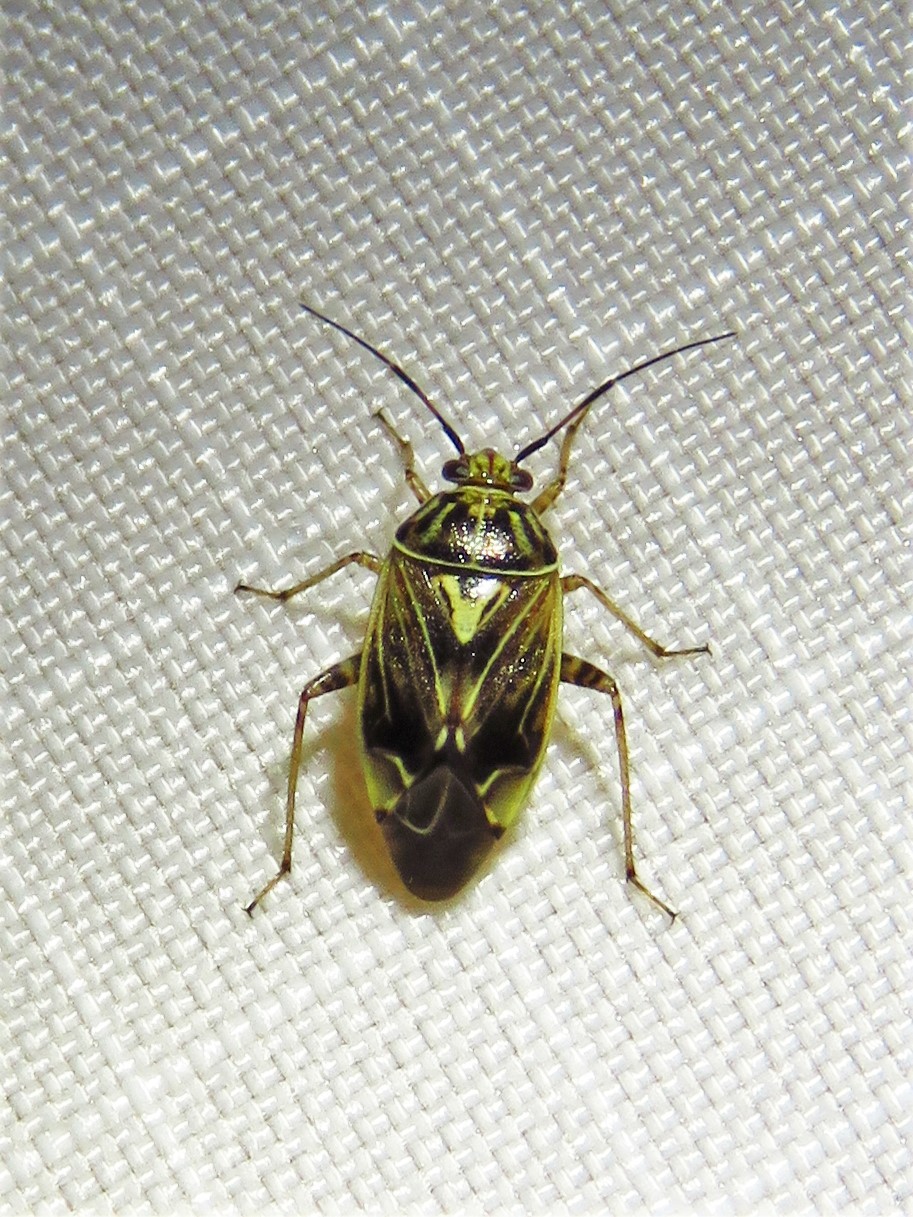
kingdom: Animalia
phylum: Arthropoda
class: Insecta
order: Hemiptera
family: Miridae
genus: Lygus
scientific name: Lygus lineolaris
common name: North american tarnished plant bug
